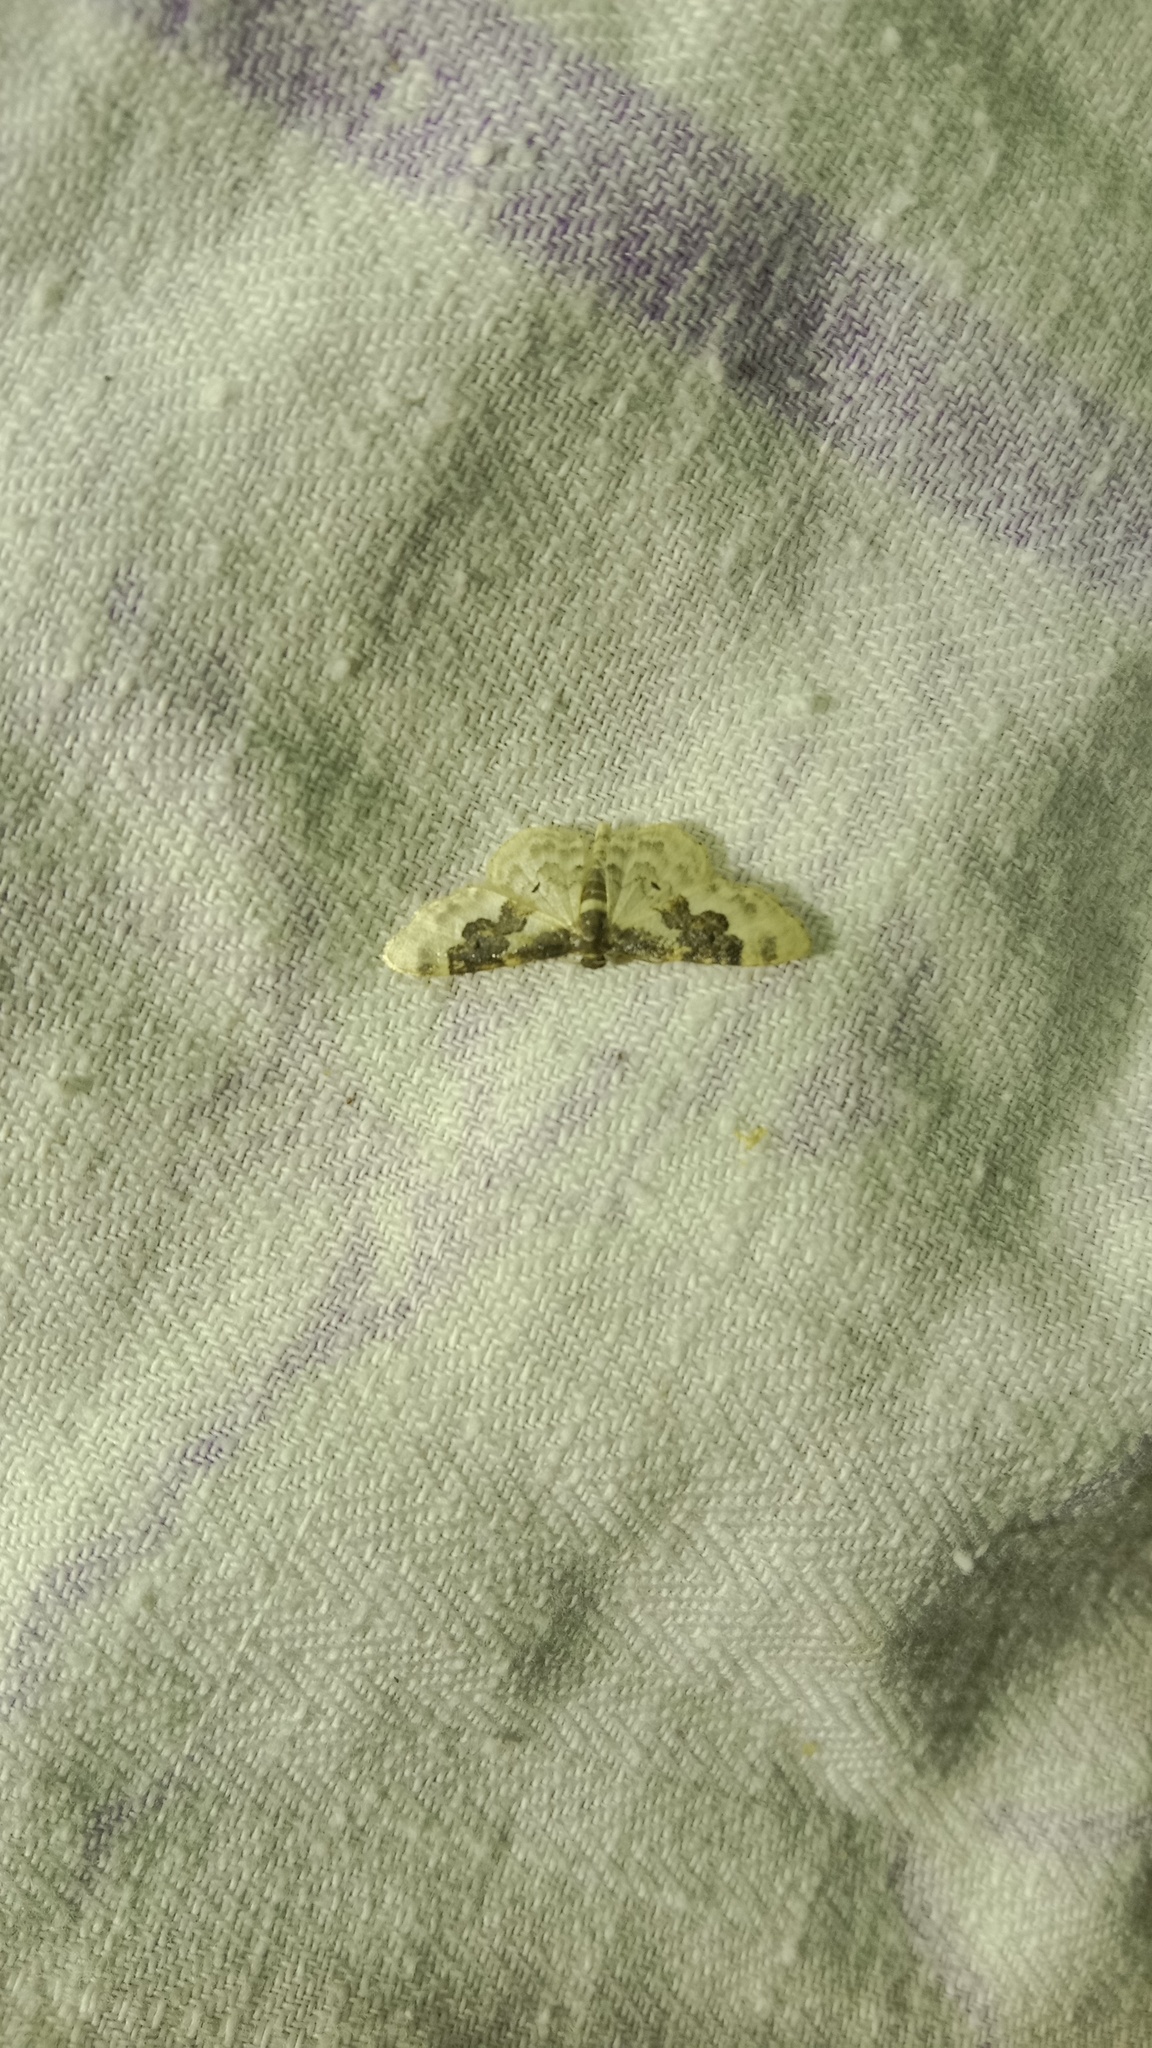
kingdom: Animalia
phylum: Arthropoda
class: Insecta
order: Lepidoptera
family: Geometridae
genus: Idaea
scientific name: Idaea rusticata
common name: Least carpet
